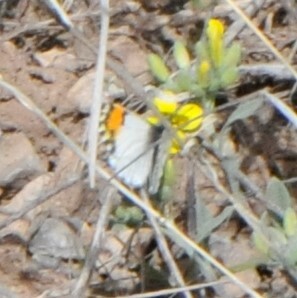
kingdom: Animalia
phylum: Arthropoda
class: Insecta
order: Lepidoptera
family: Pieridae
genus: Anthocharis
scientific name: Anthocharis thoosa
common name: Southwestern orangetip
